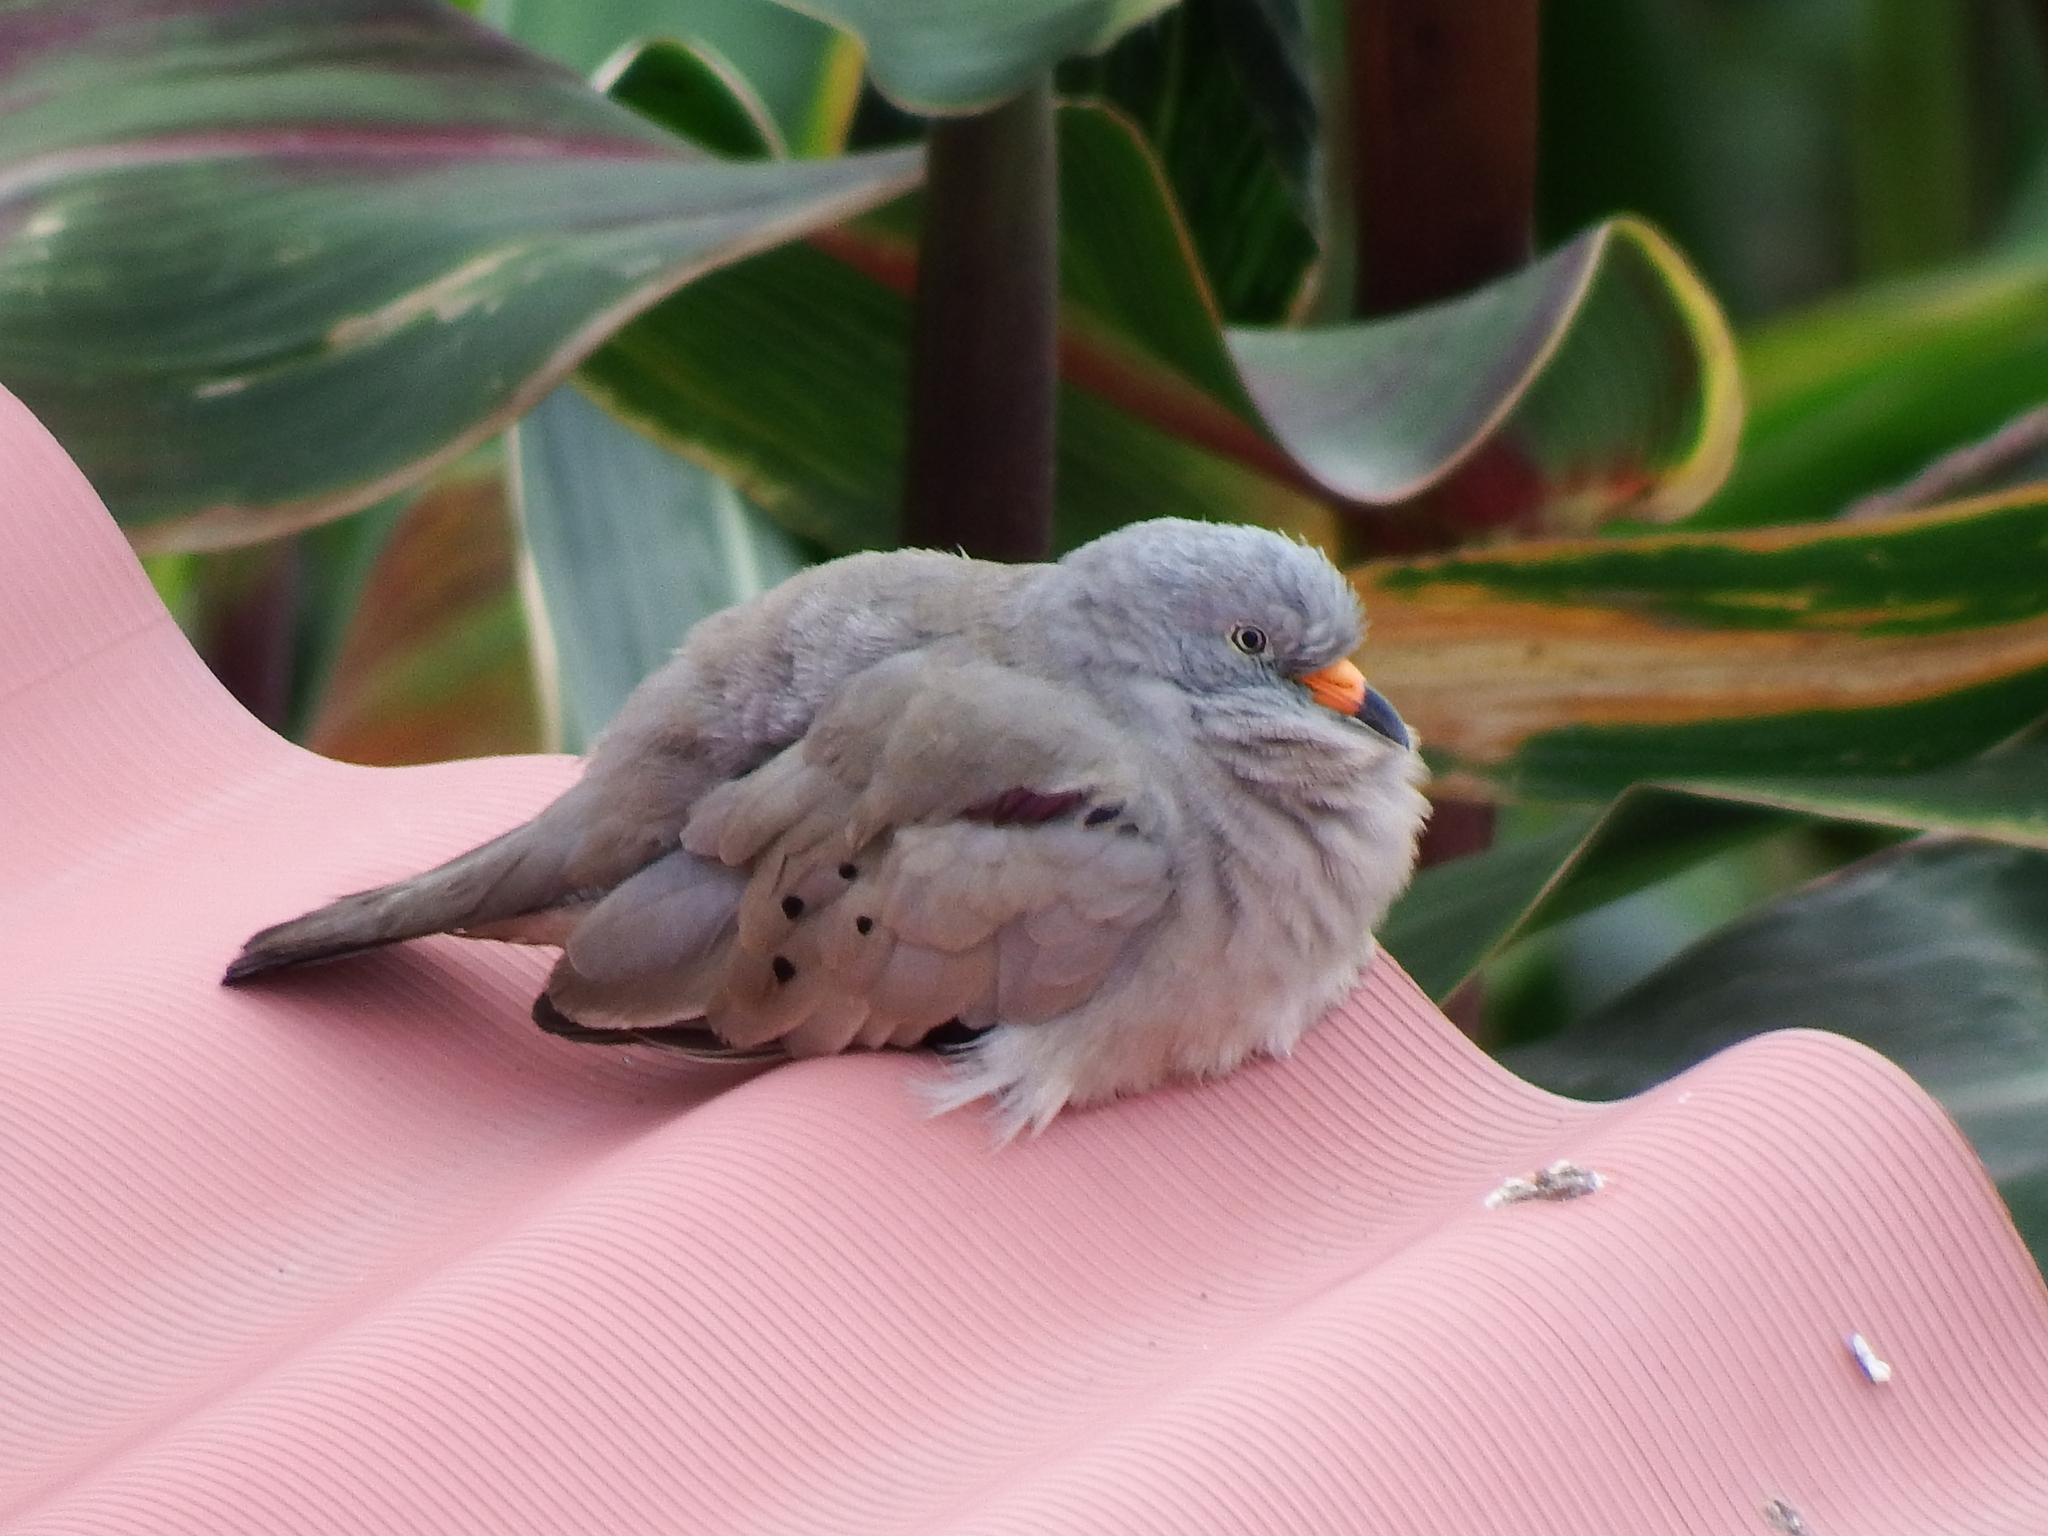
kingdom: Animalia
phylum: Chordata
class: Aves
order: Columbiformes
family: Columbidae
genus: Columbina
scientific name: Columbina cruziana
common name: Croaking ground dove
